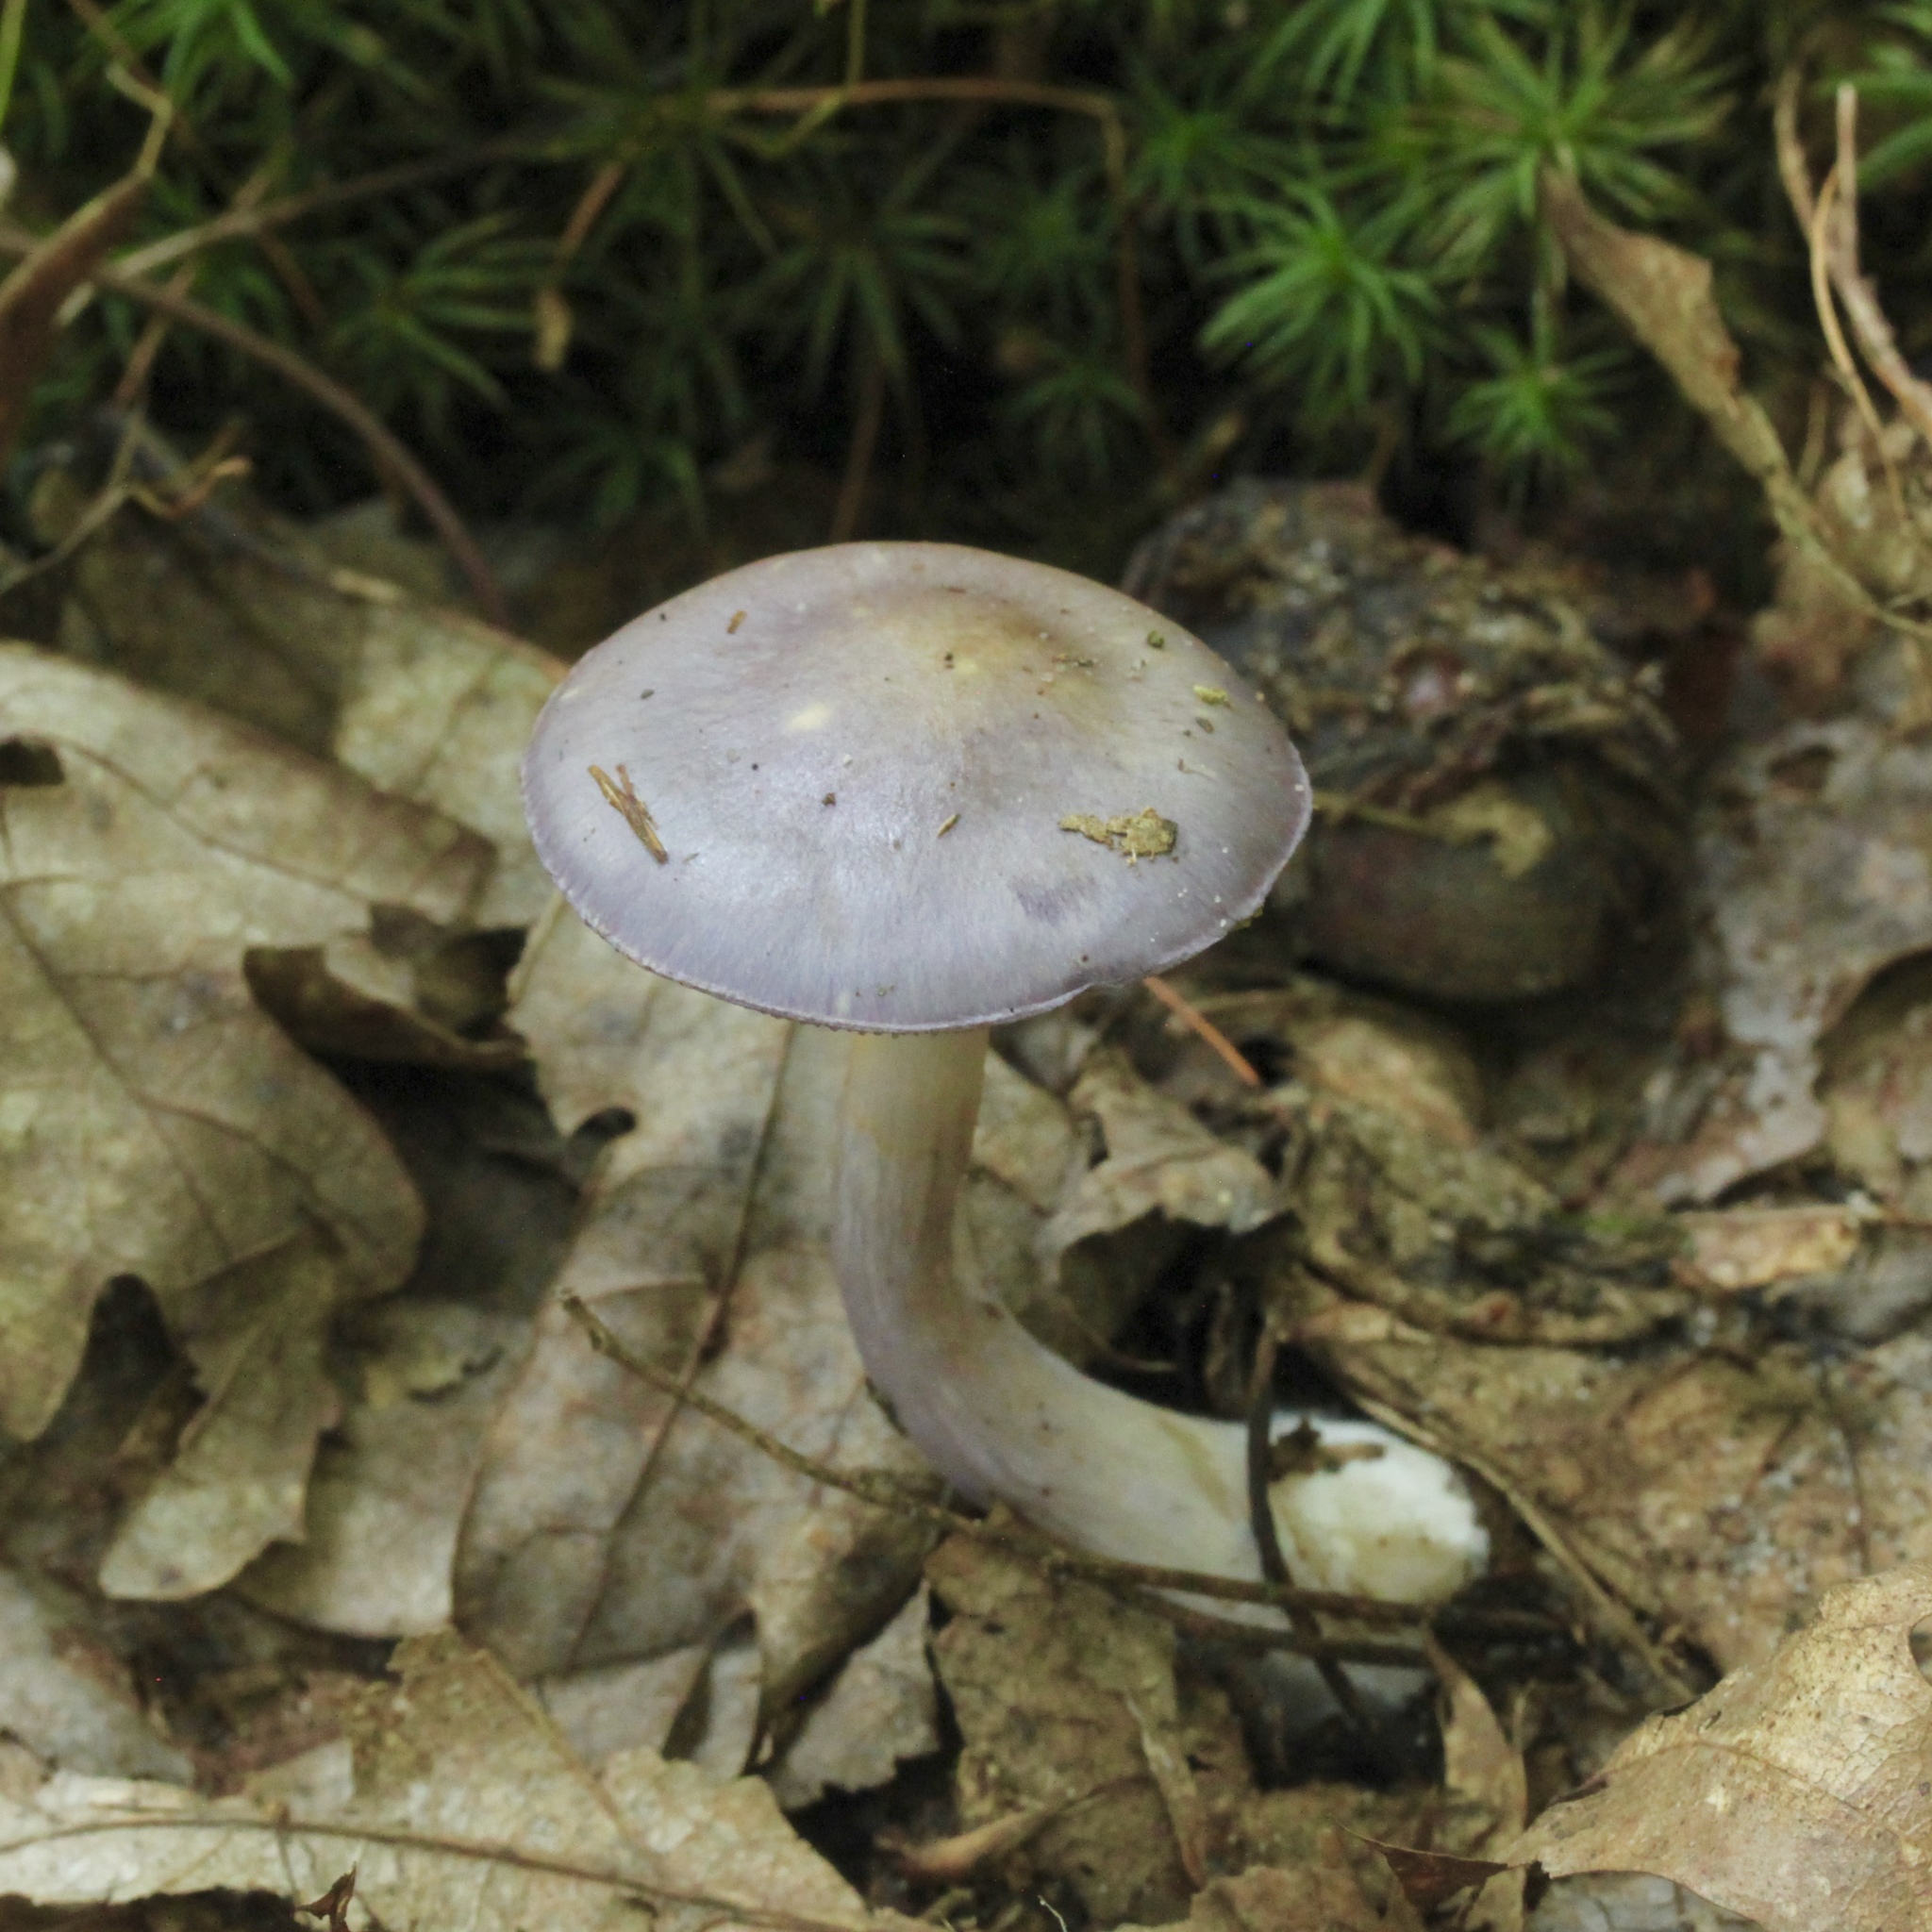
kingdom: Fungi
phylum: Basidiomycota
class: Agaricomycetes
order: Agaricales
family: Cortinariaceae
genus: Cortinarius
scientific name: Cortinarius iodes
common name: Viscid violet cort
